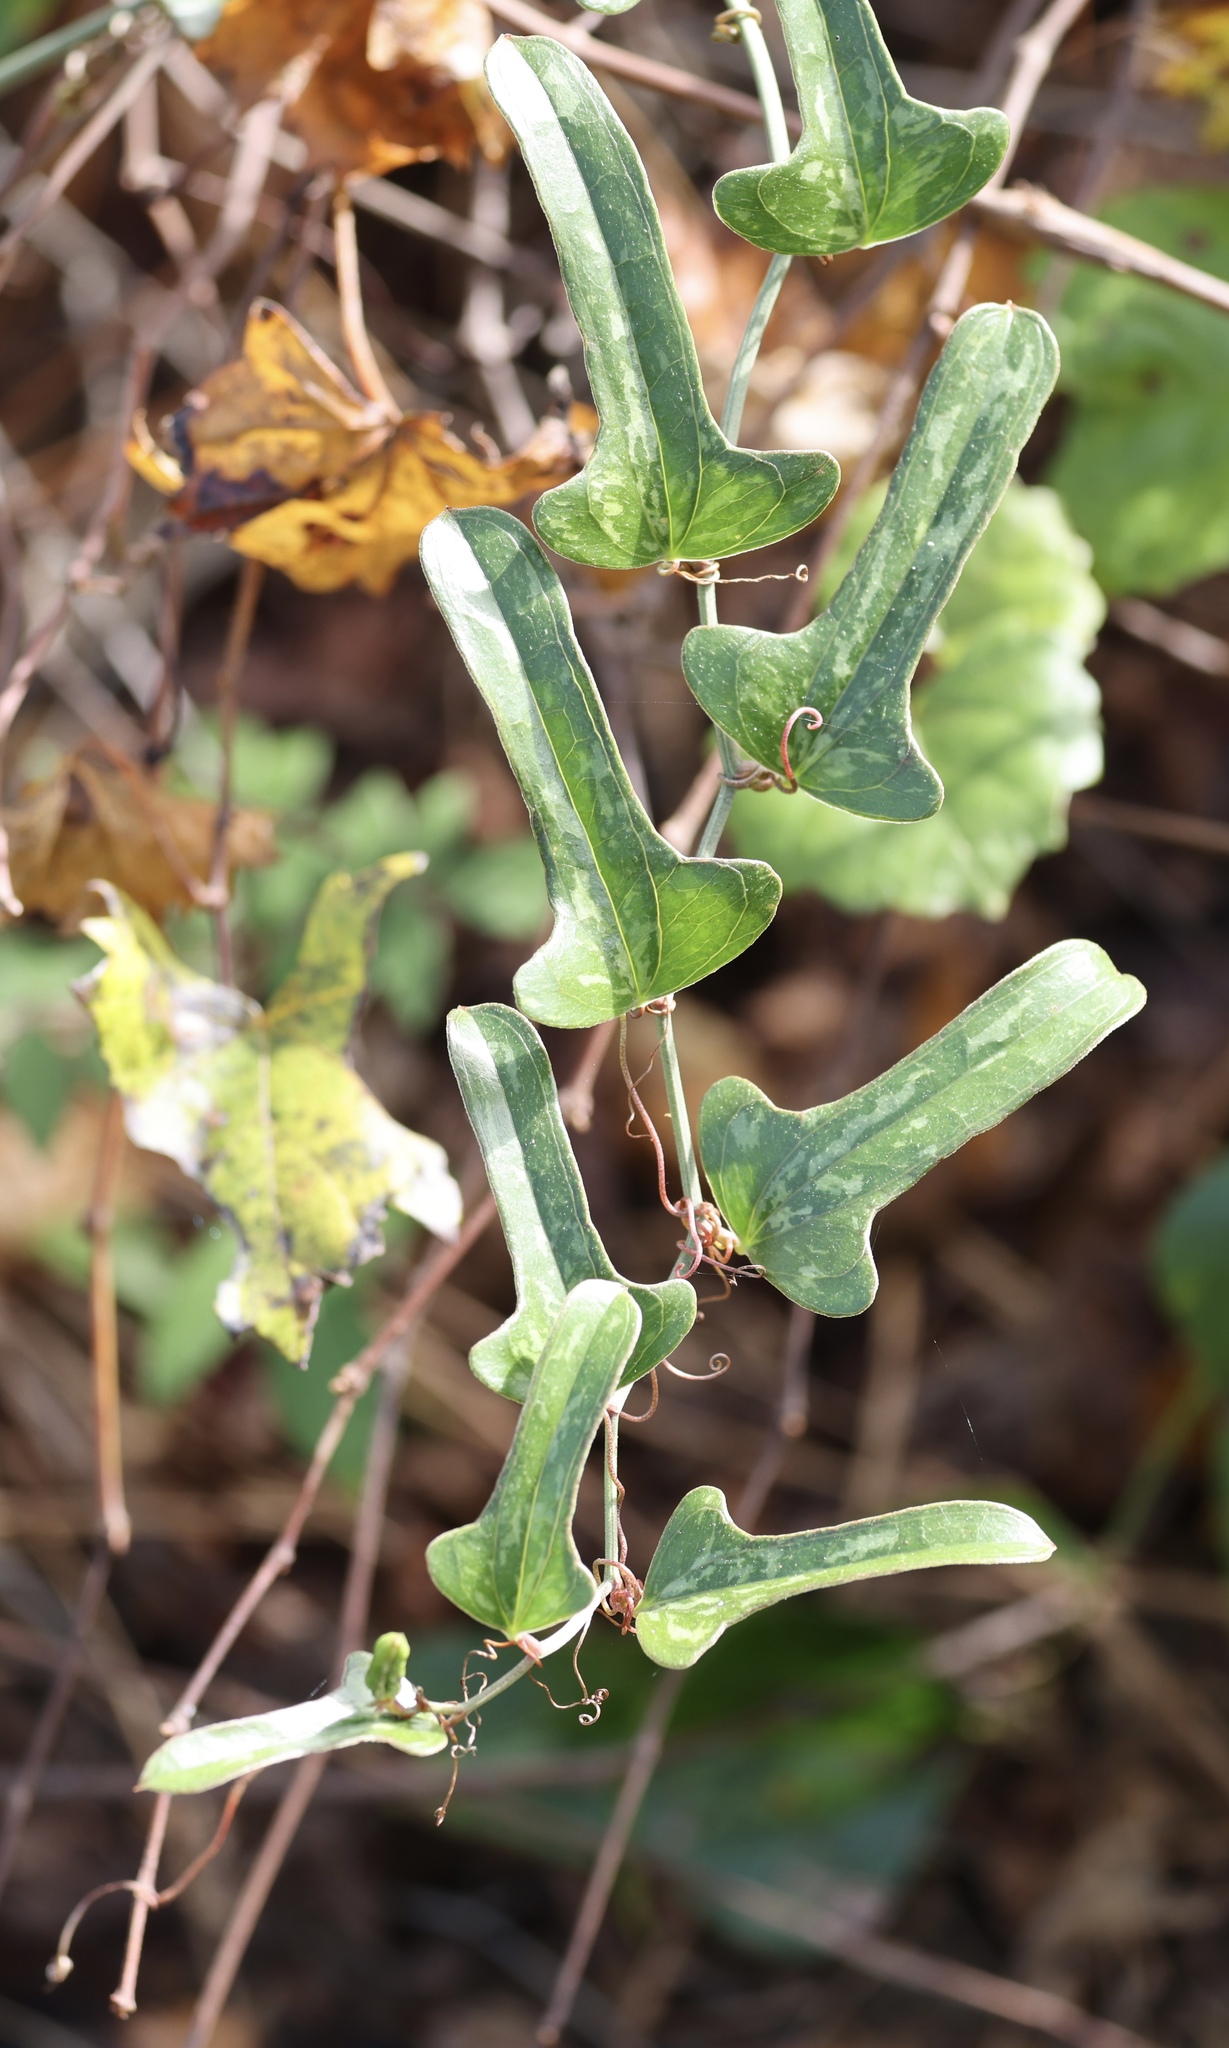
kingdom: Plantae
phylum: Tracheophyta
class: Liliopsida
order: Liliales
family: Smilacaceae
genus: Smilax
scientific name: Smilax auriculata
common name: Wild bamboo
